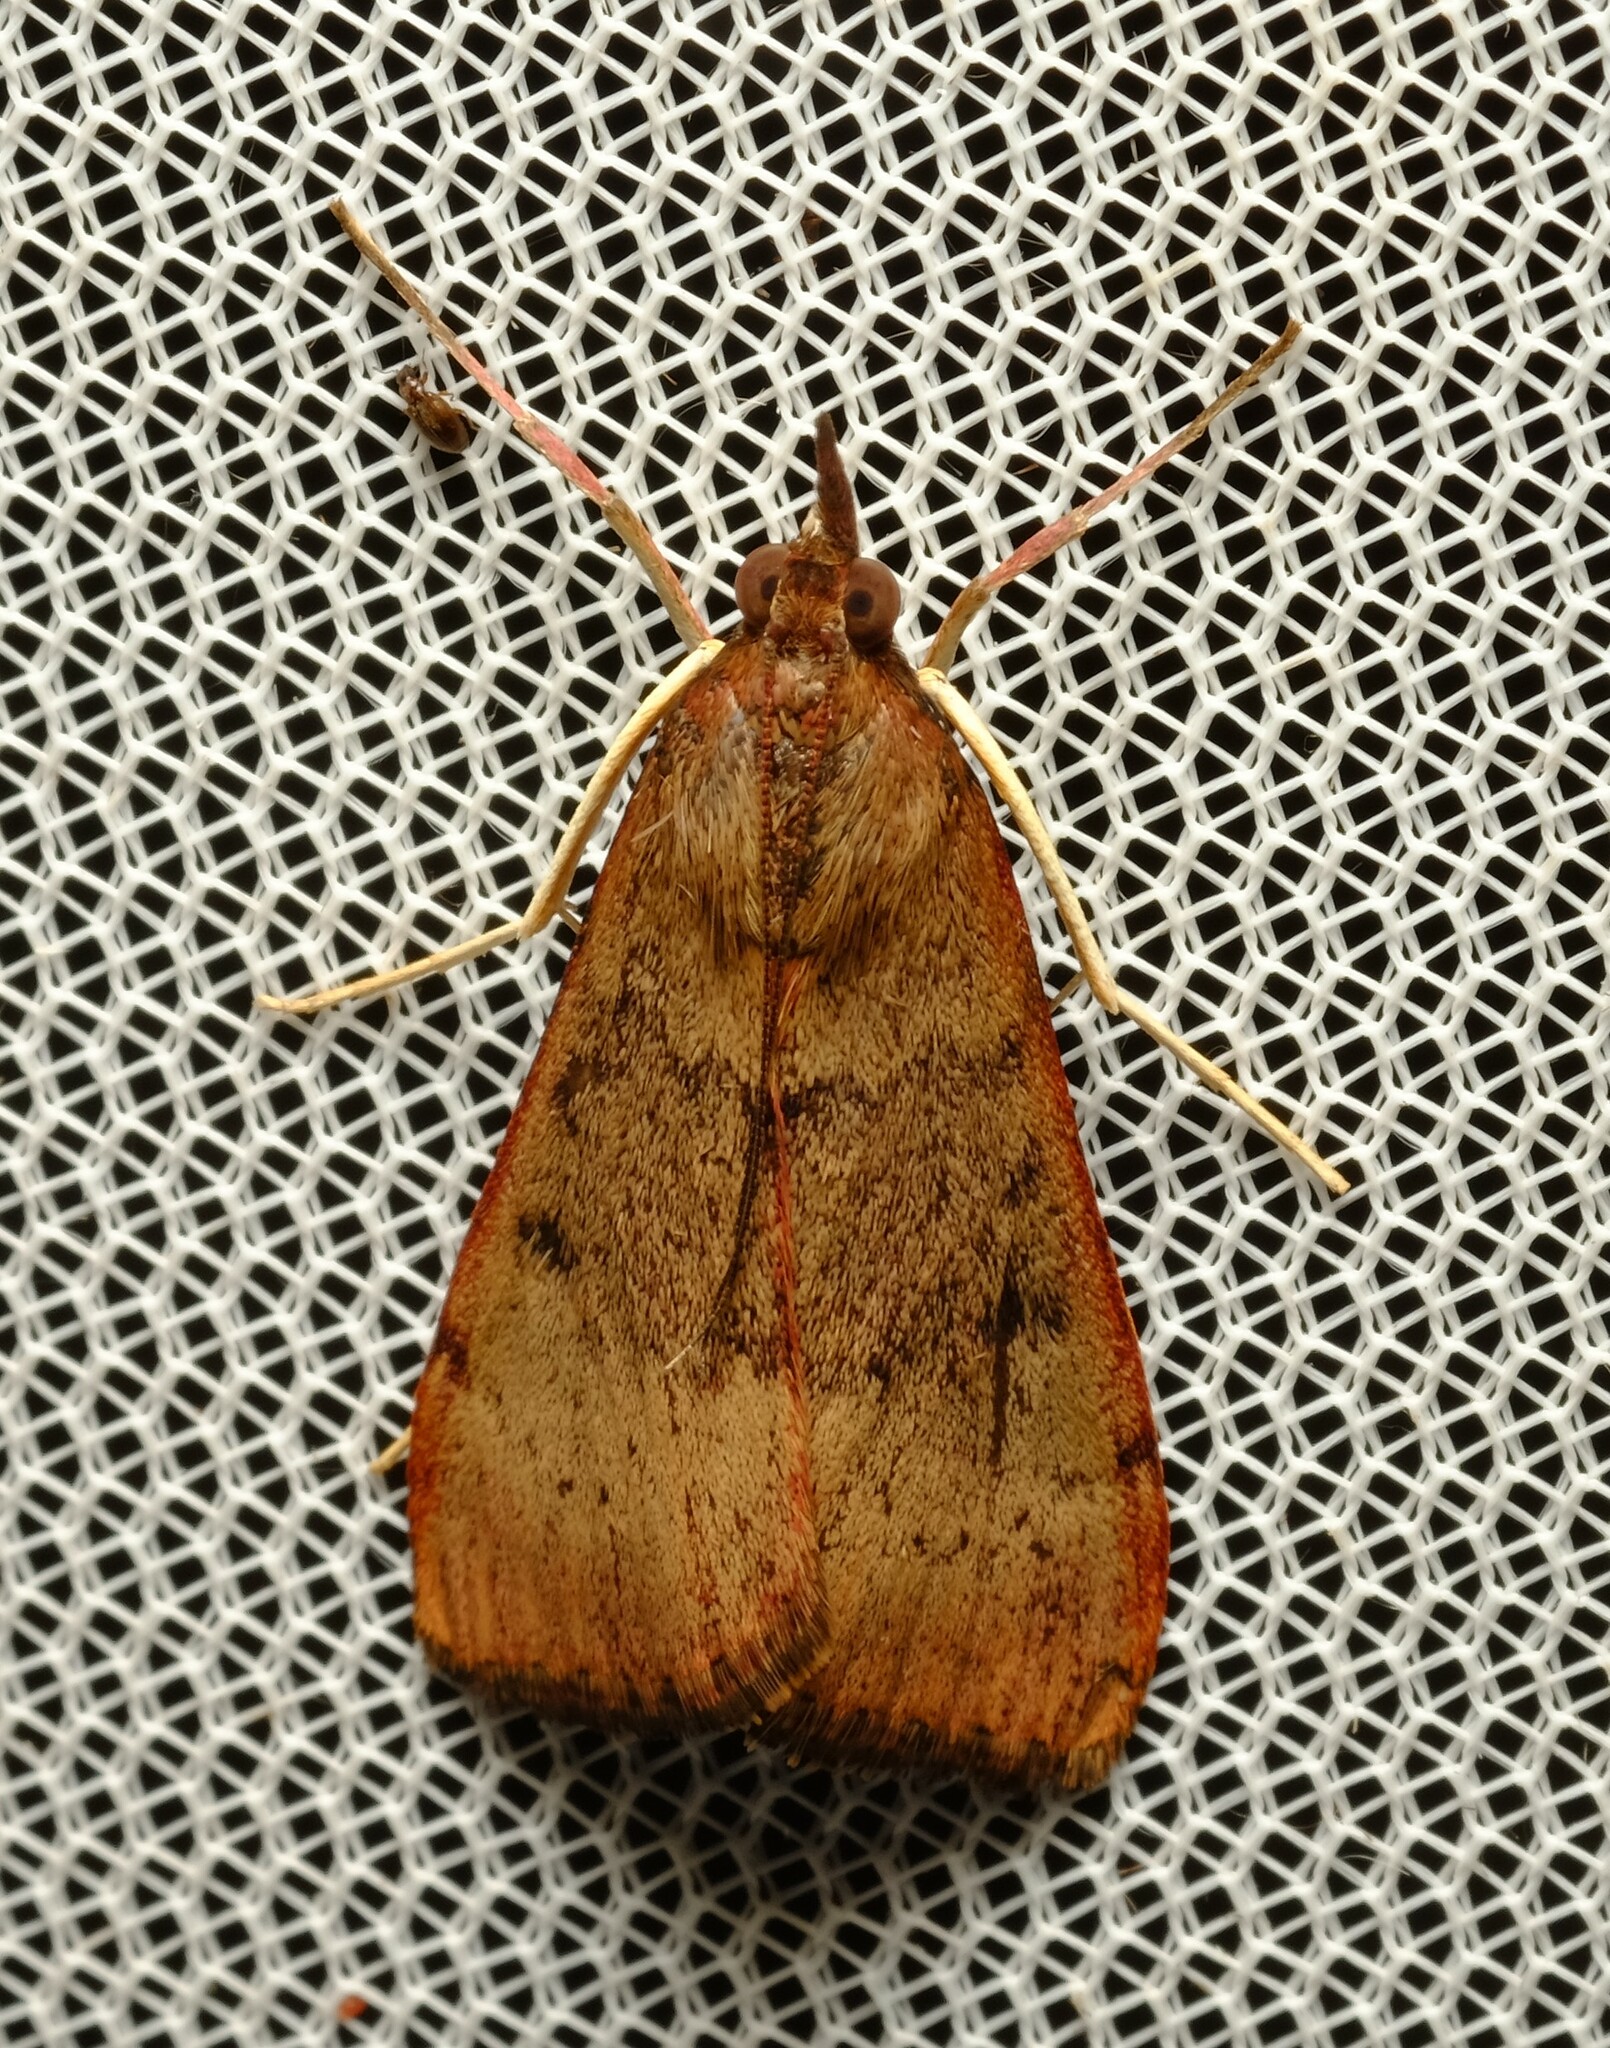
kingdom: Animalia
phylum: Arthropoda
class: Insecta
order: Lepidoptera
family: Crambidae
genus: Uresiphita
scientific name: Uresiphita ornithopteralis
